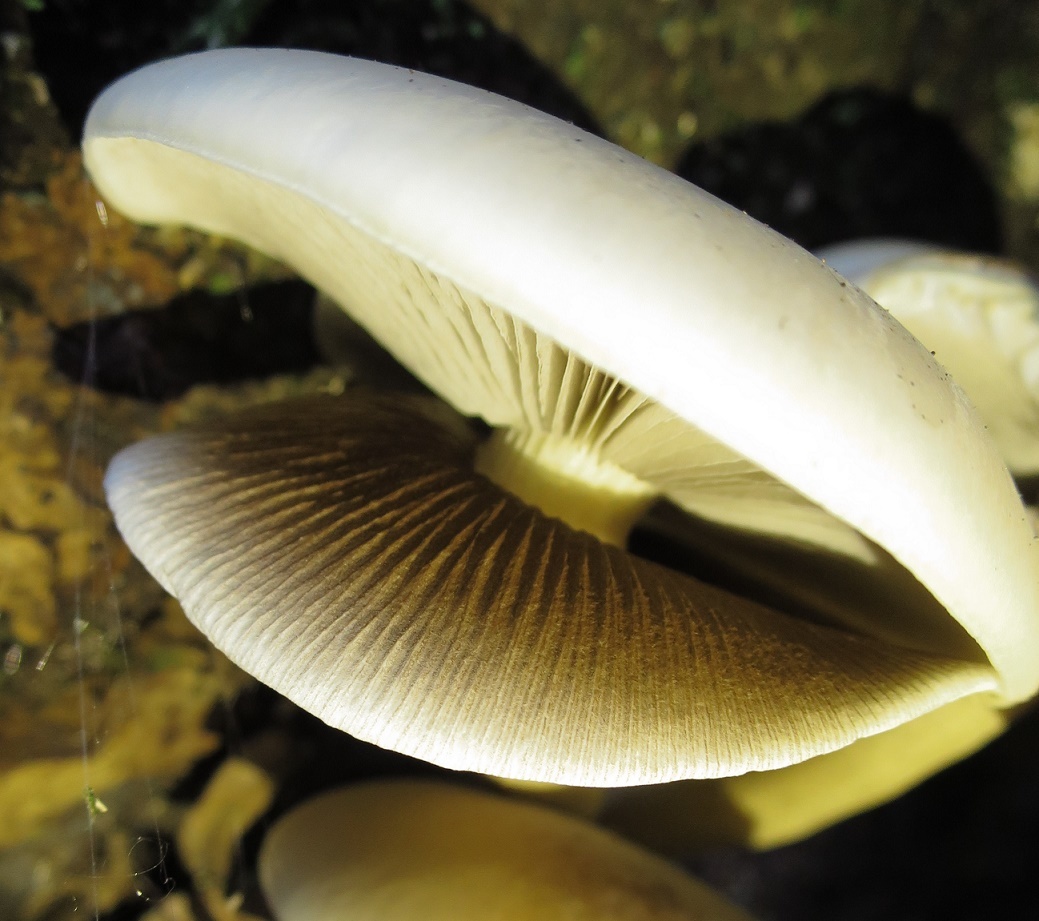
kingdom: Fungi
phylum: Basidiomycota
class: Agaricomycetes
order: Agaricales
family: Tubariaceae
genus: Cyclocybe
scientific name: Cyclocybe parasitica
